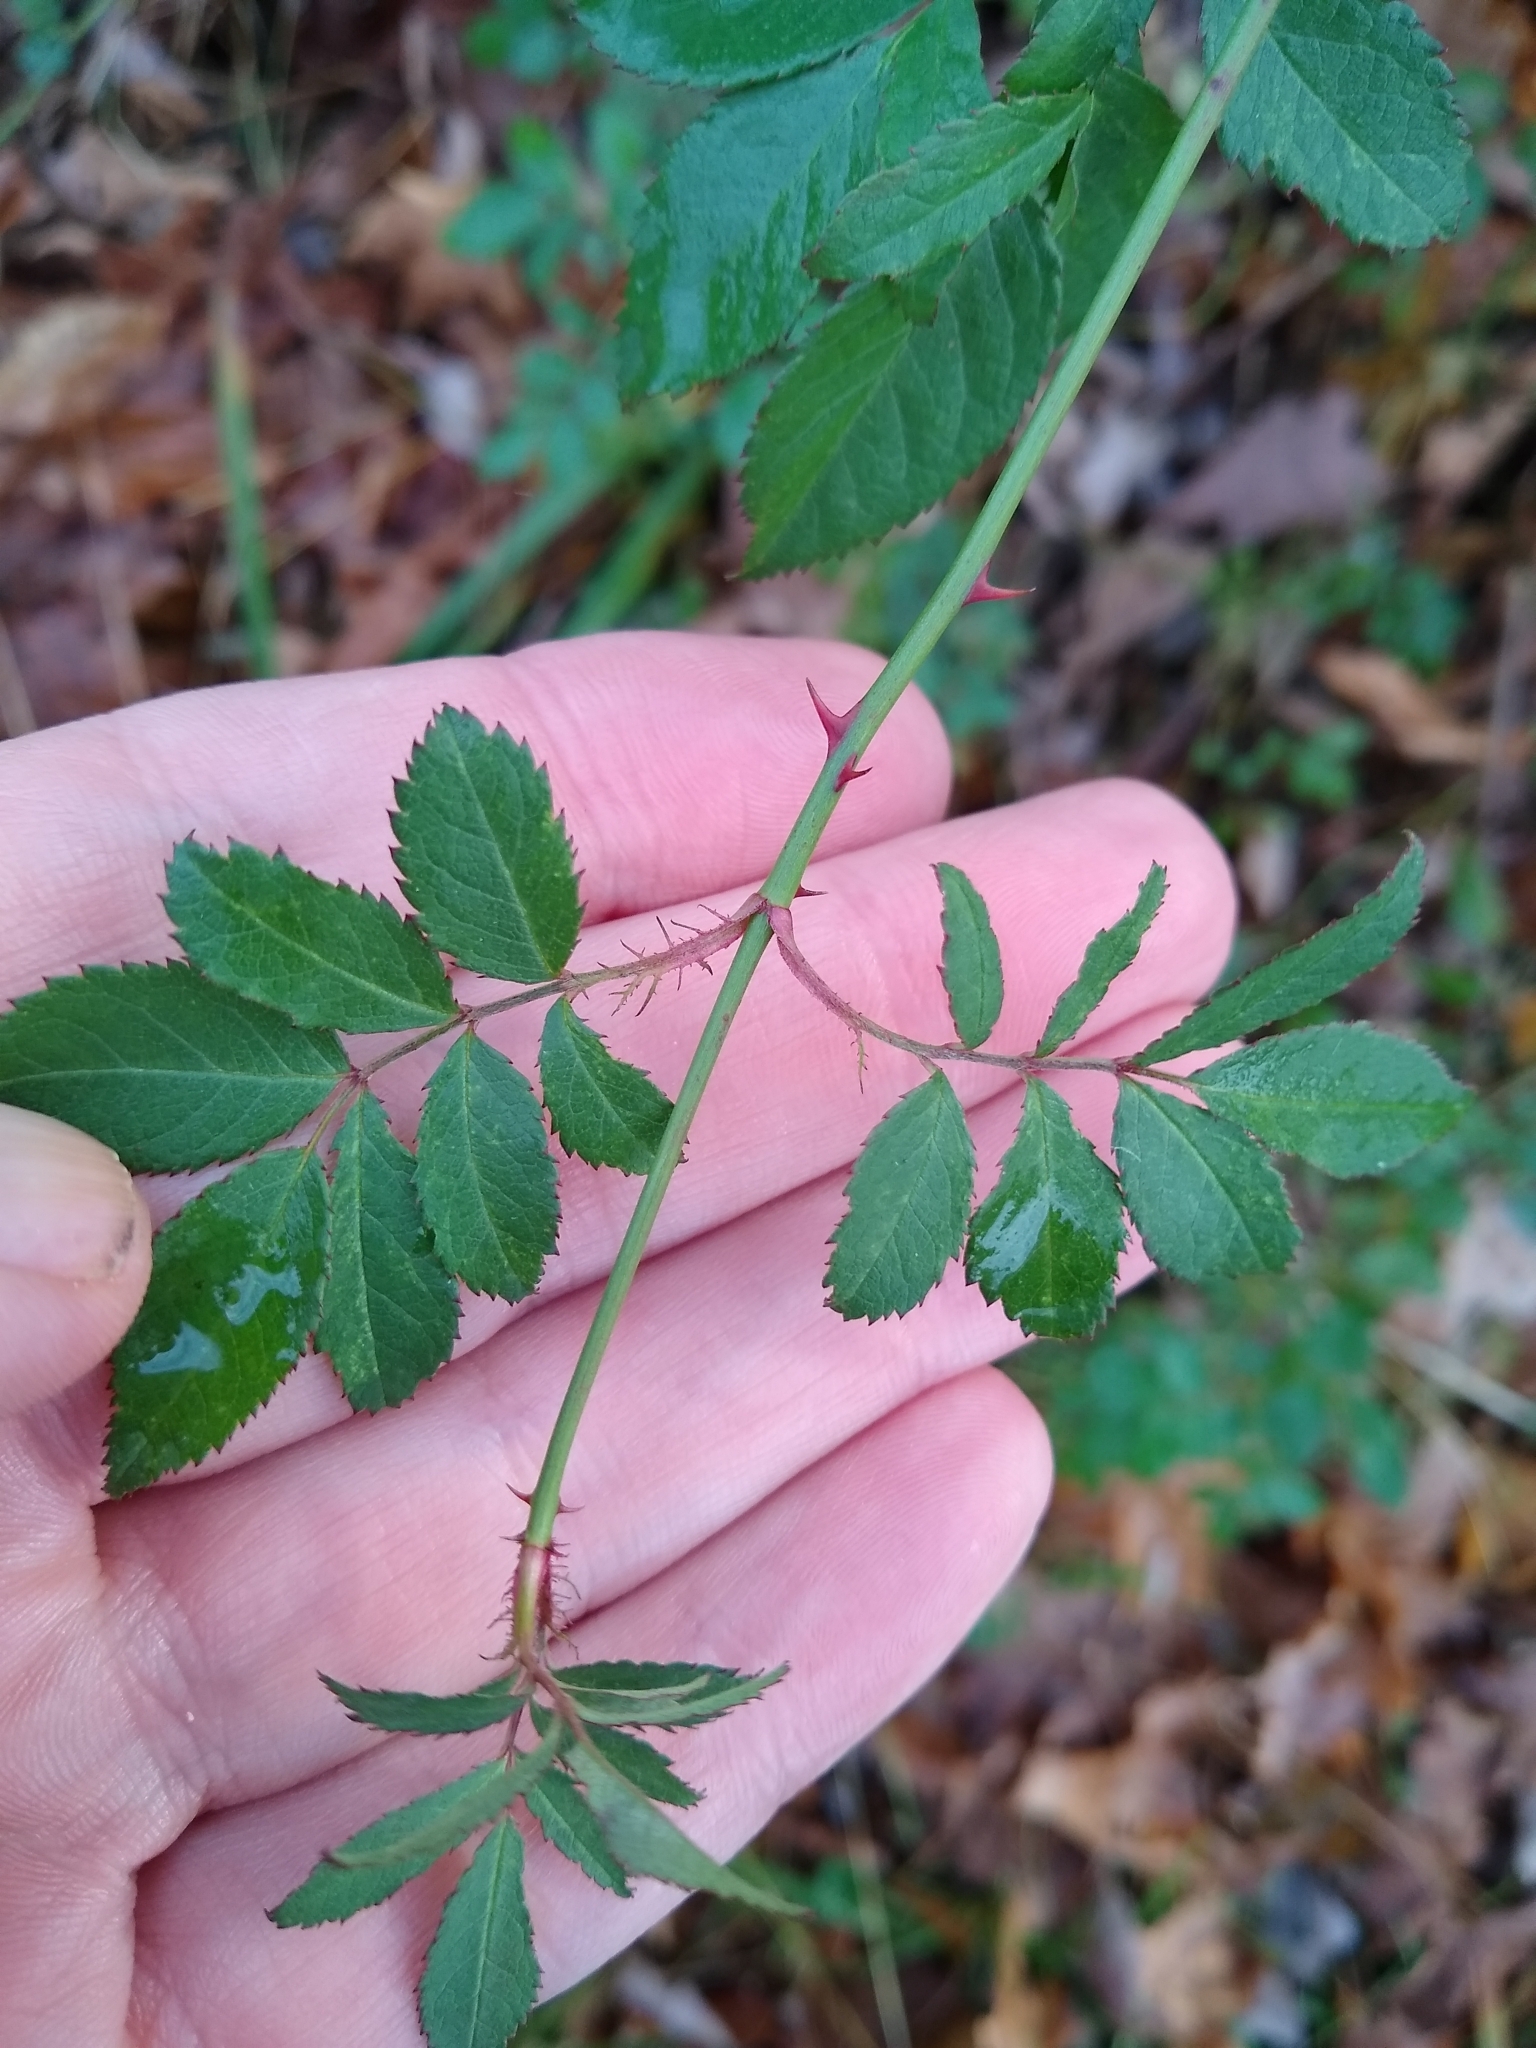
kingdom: Plantae
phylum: Tracheophyta
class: Magnoliopsida
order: Rosales
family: Rosaceae
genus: Rosa
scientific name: Rosa multiflora
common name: Multiflora rose
